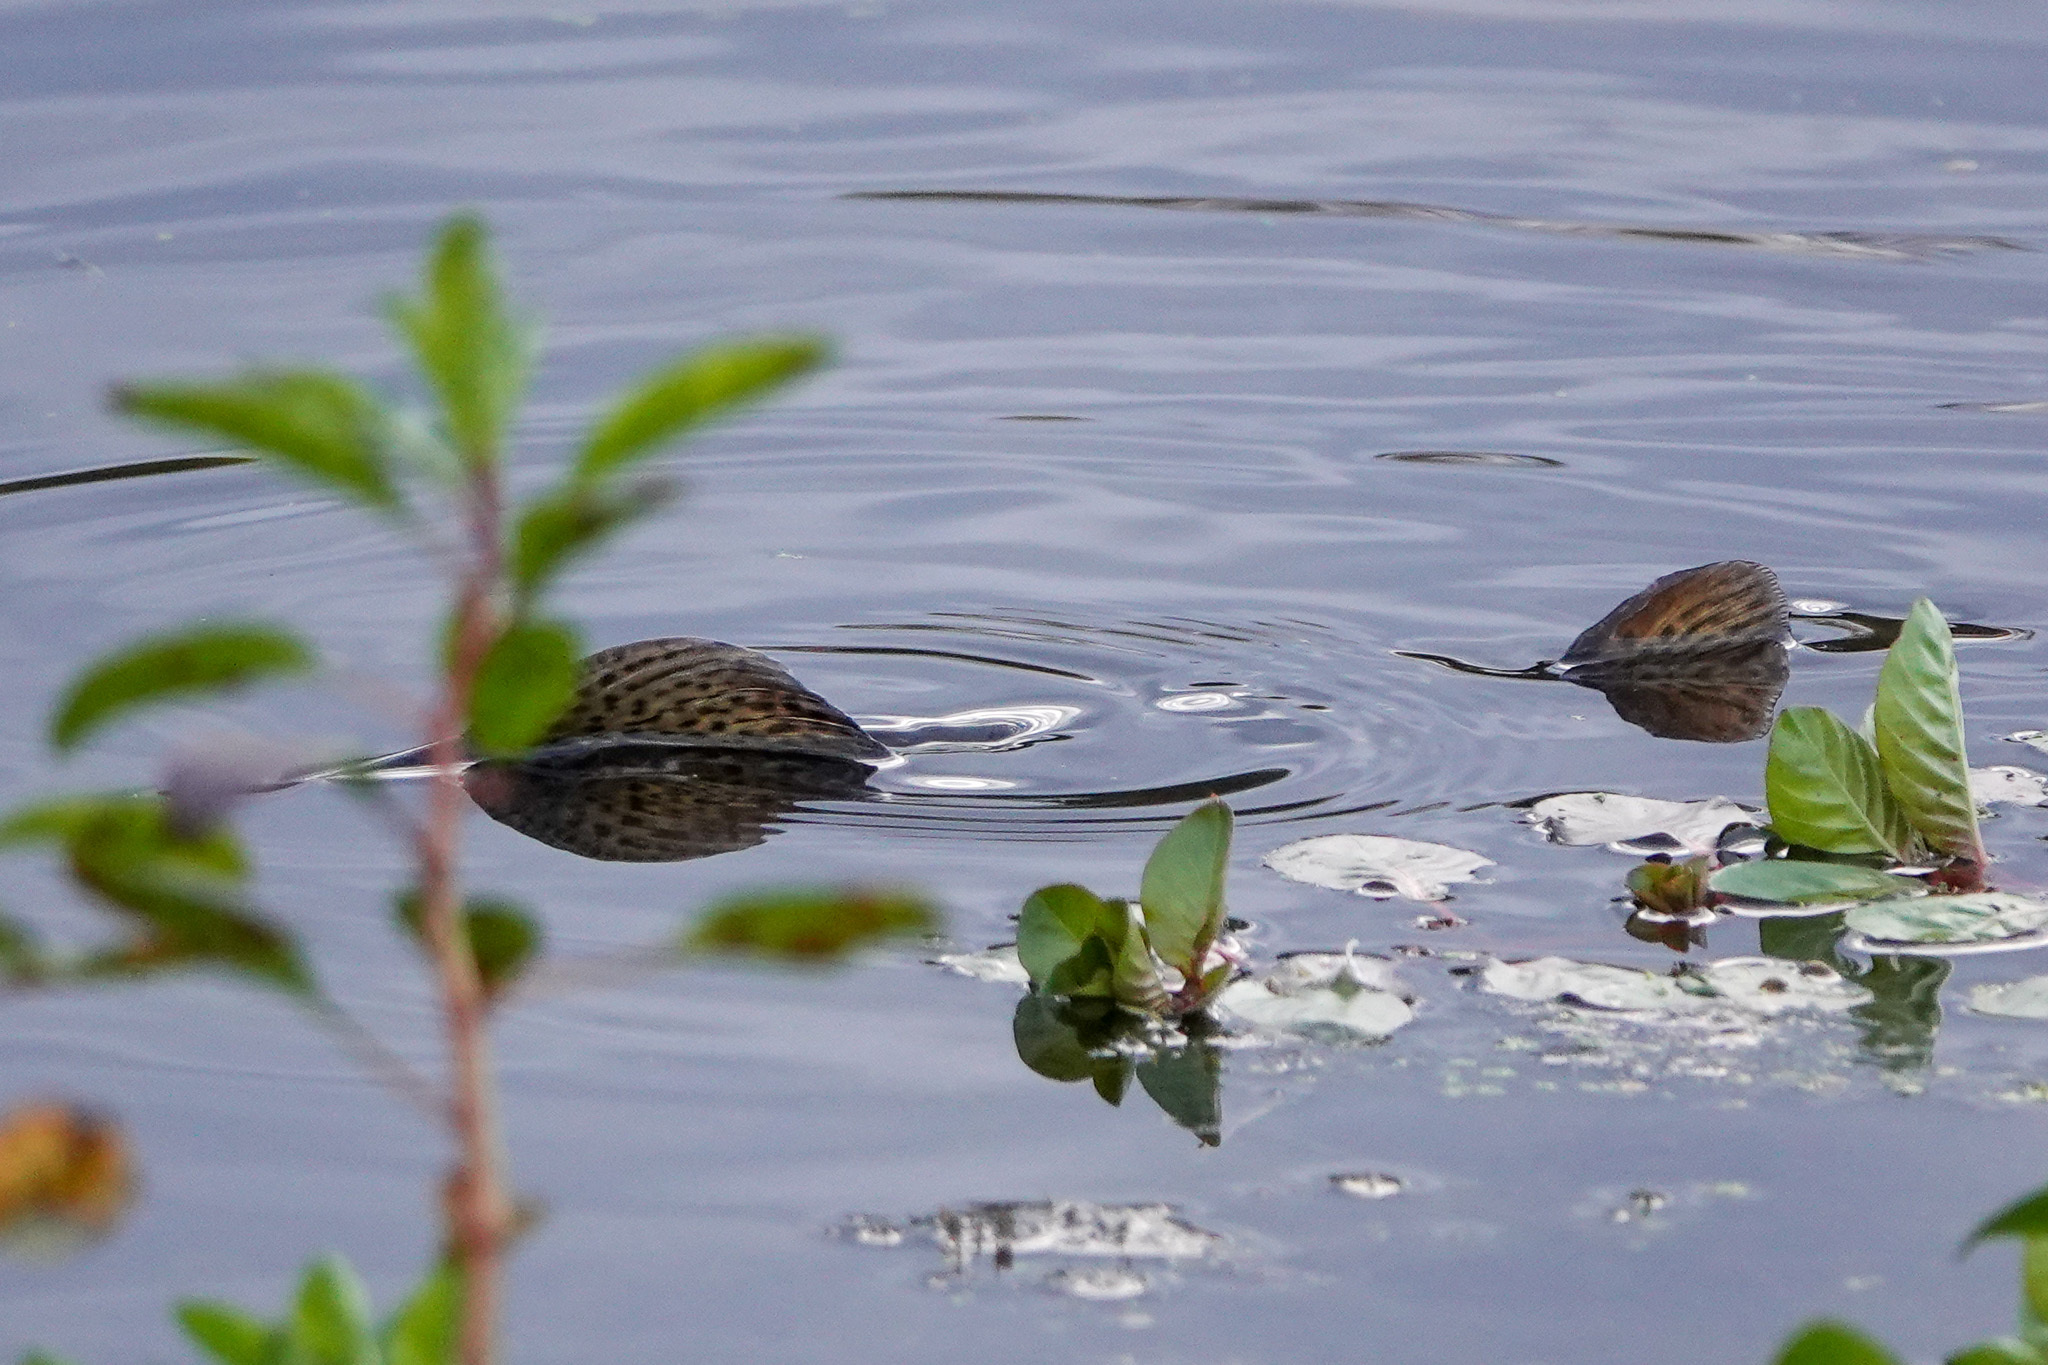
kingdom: Animalia
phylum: Chordata
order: Salmoniformes
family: Salmonidae
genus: Oncorhynchus
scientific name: Oncorhynchus mykiss
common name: Rainbow trout
